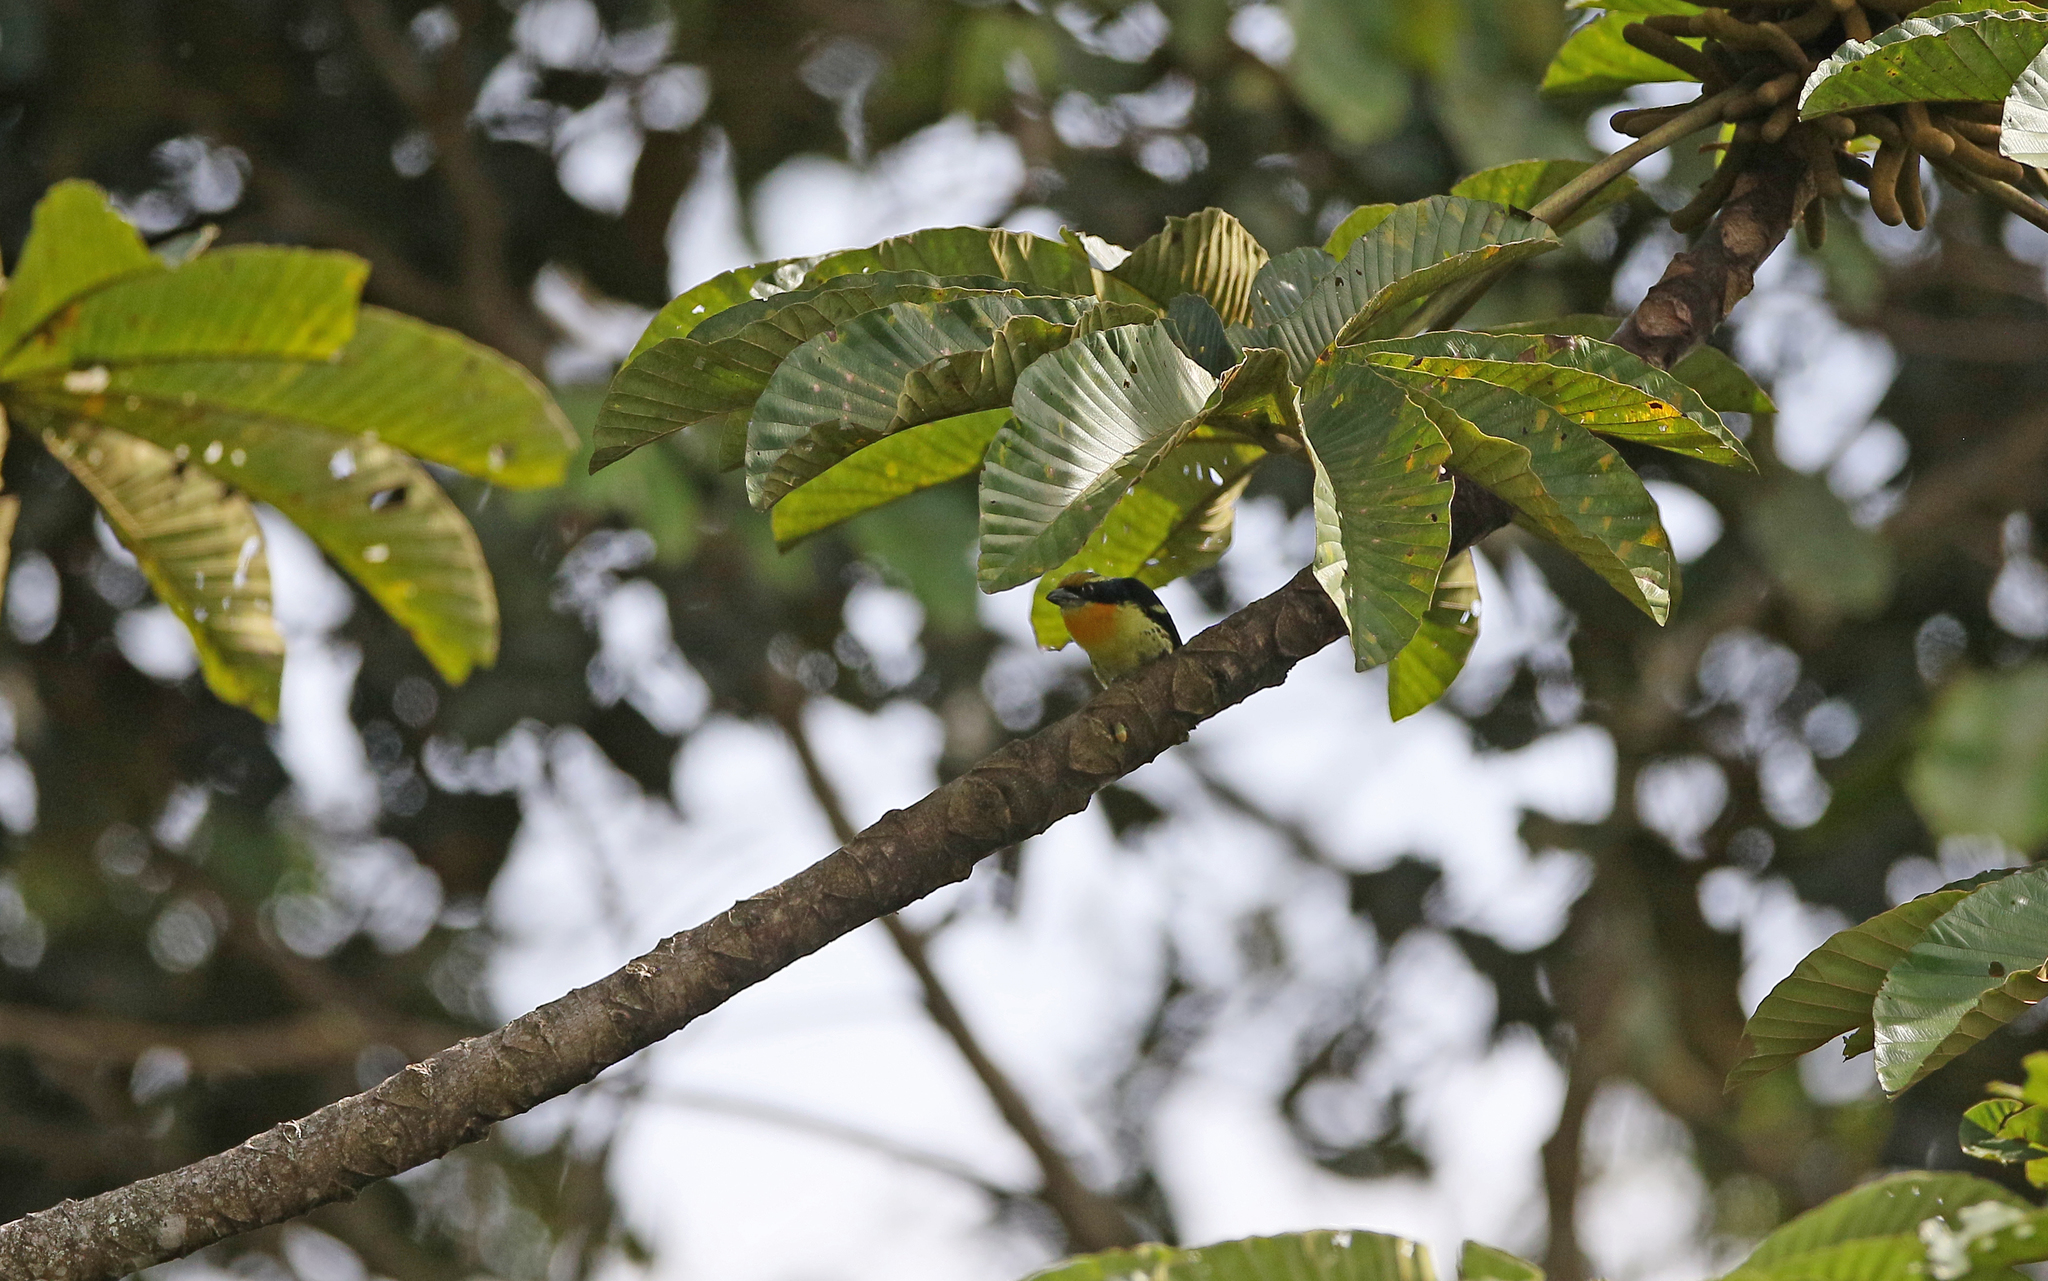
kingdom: Animalia
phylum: Chordata
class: Aves
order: Piciformes
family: Capitonidae
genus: Capito
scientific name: Capito auratus
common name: Gilded barbet
